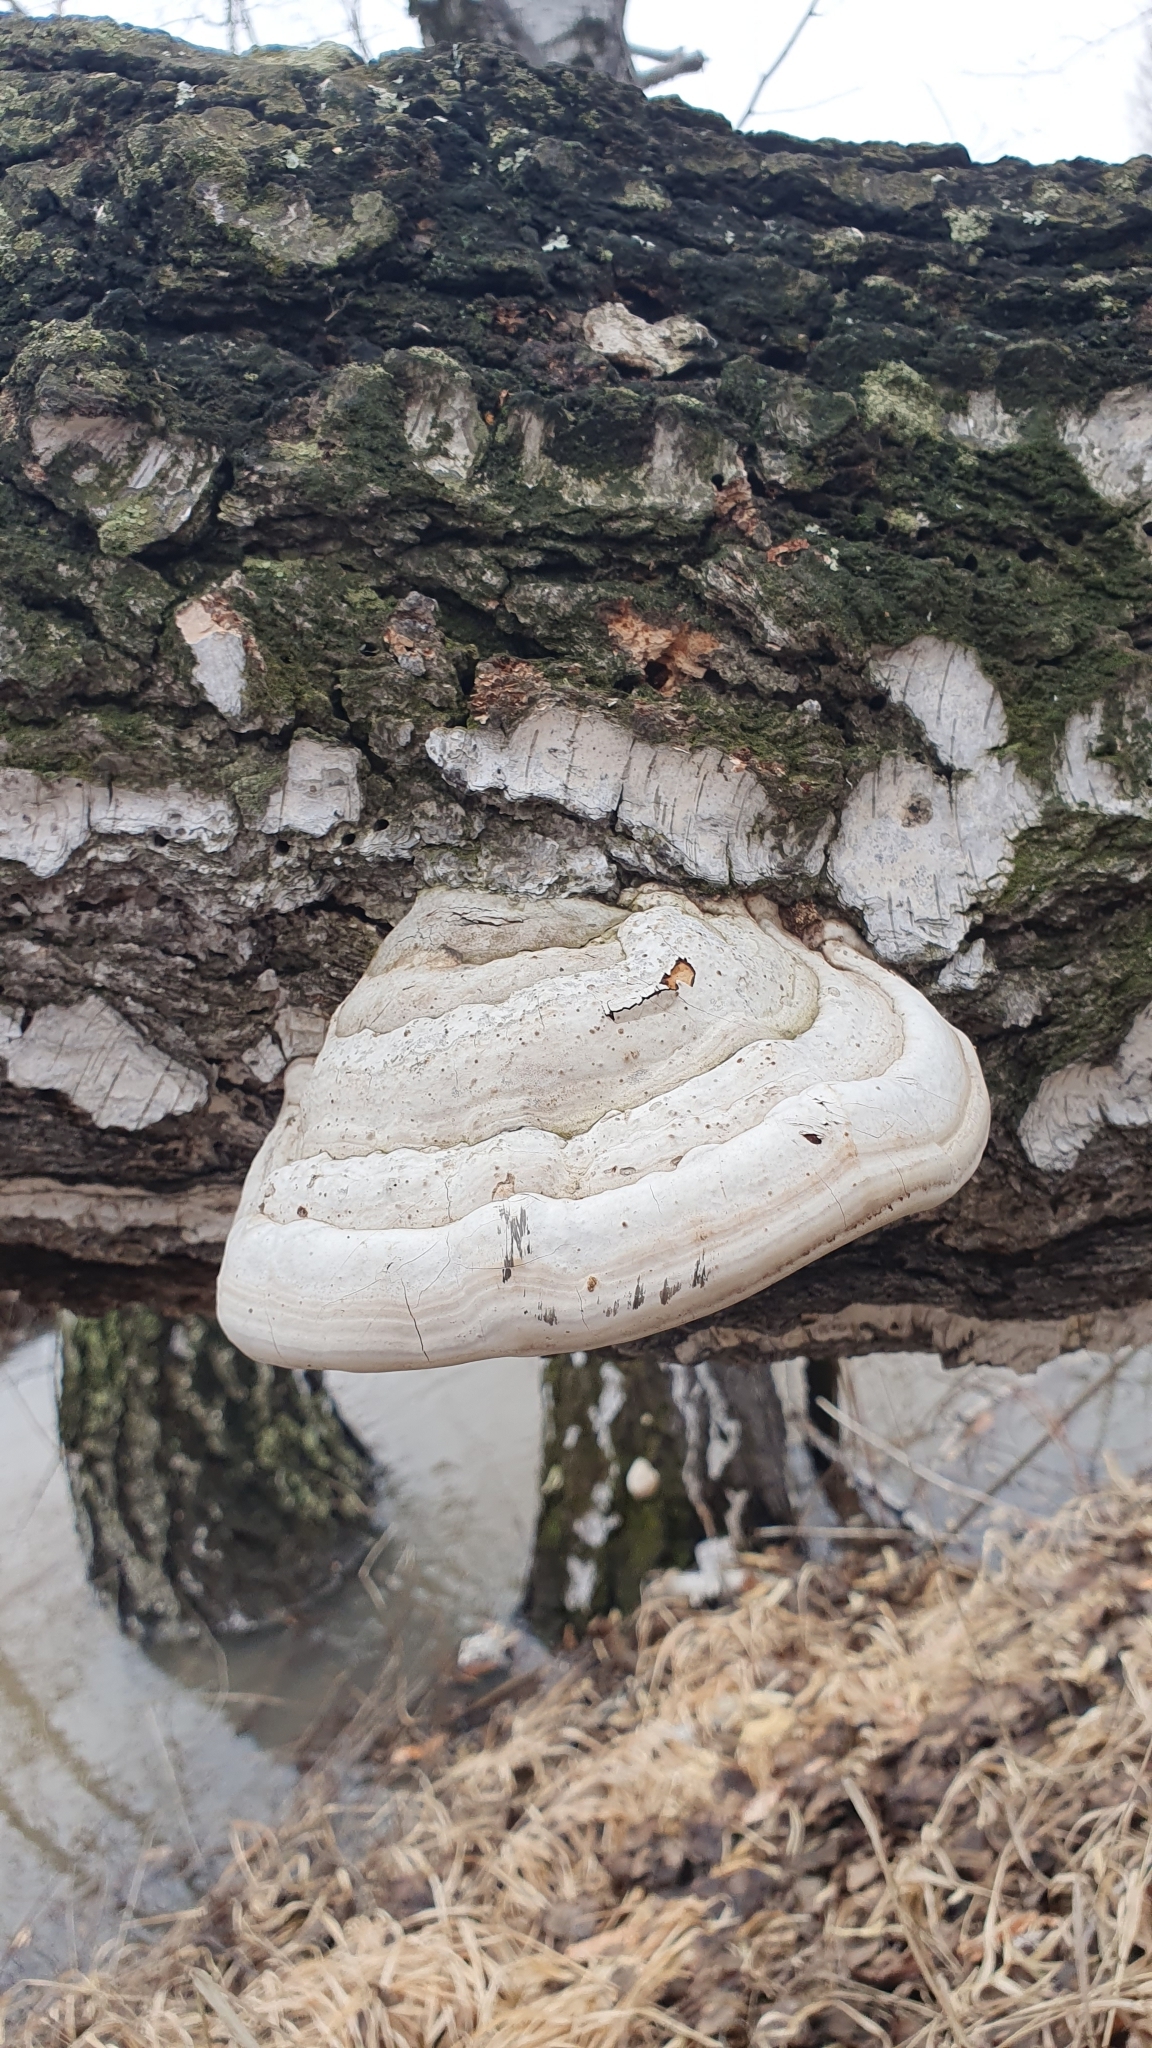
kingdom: Fungi
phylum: Basidiomycota
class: Agaricomycetes
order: Polyporales
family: Polyporaceae
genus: Fomes
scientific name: Fomes fomentarius
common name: Hoof fungus
